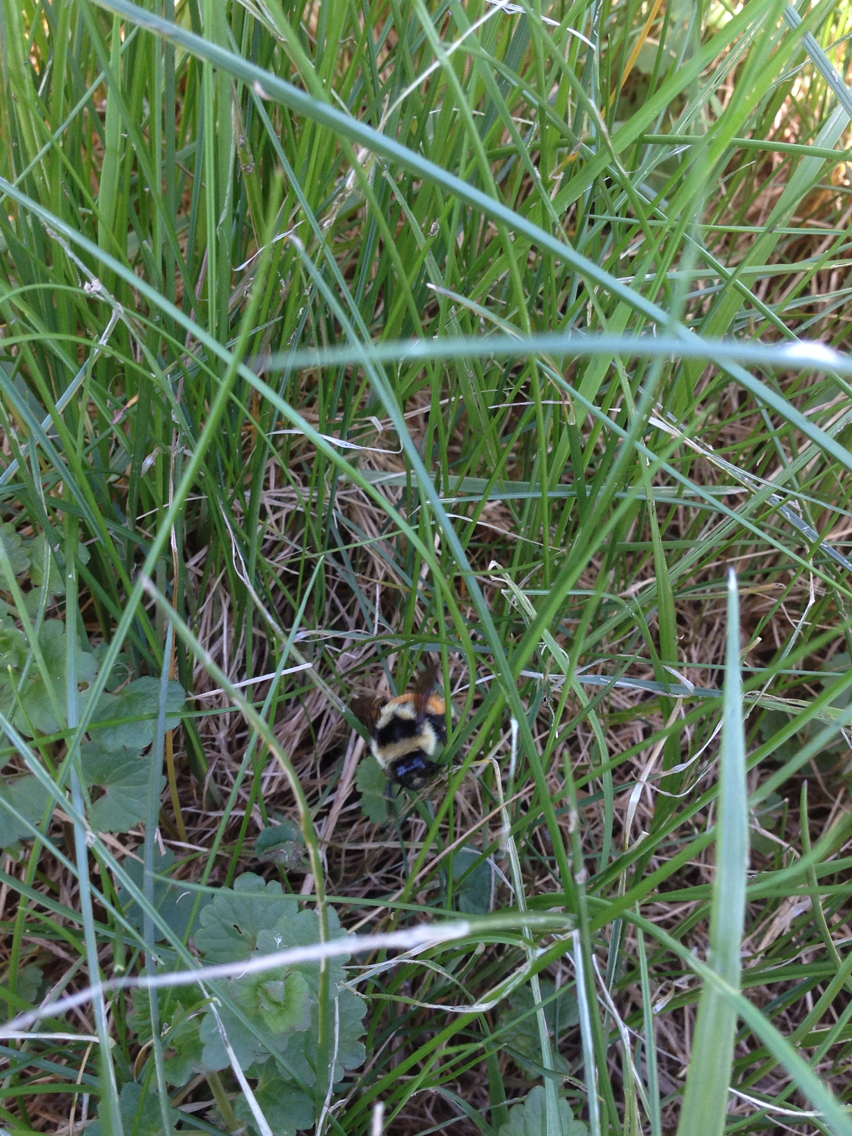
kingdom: Animalia
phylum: Arthropoda
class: Insecta
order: Hymenoptera
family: Apidae
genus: Bombus
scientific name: Bombus ternarius
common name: Tri-colored bumble bee
